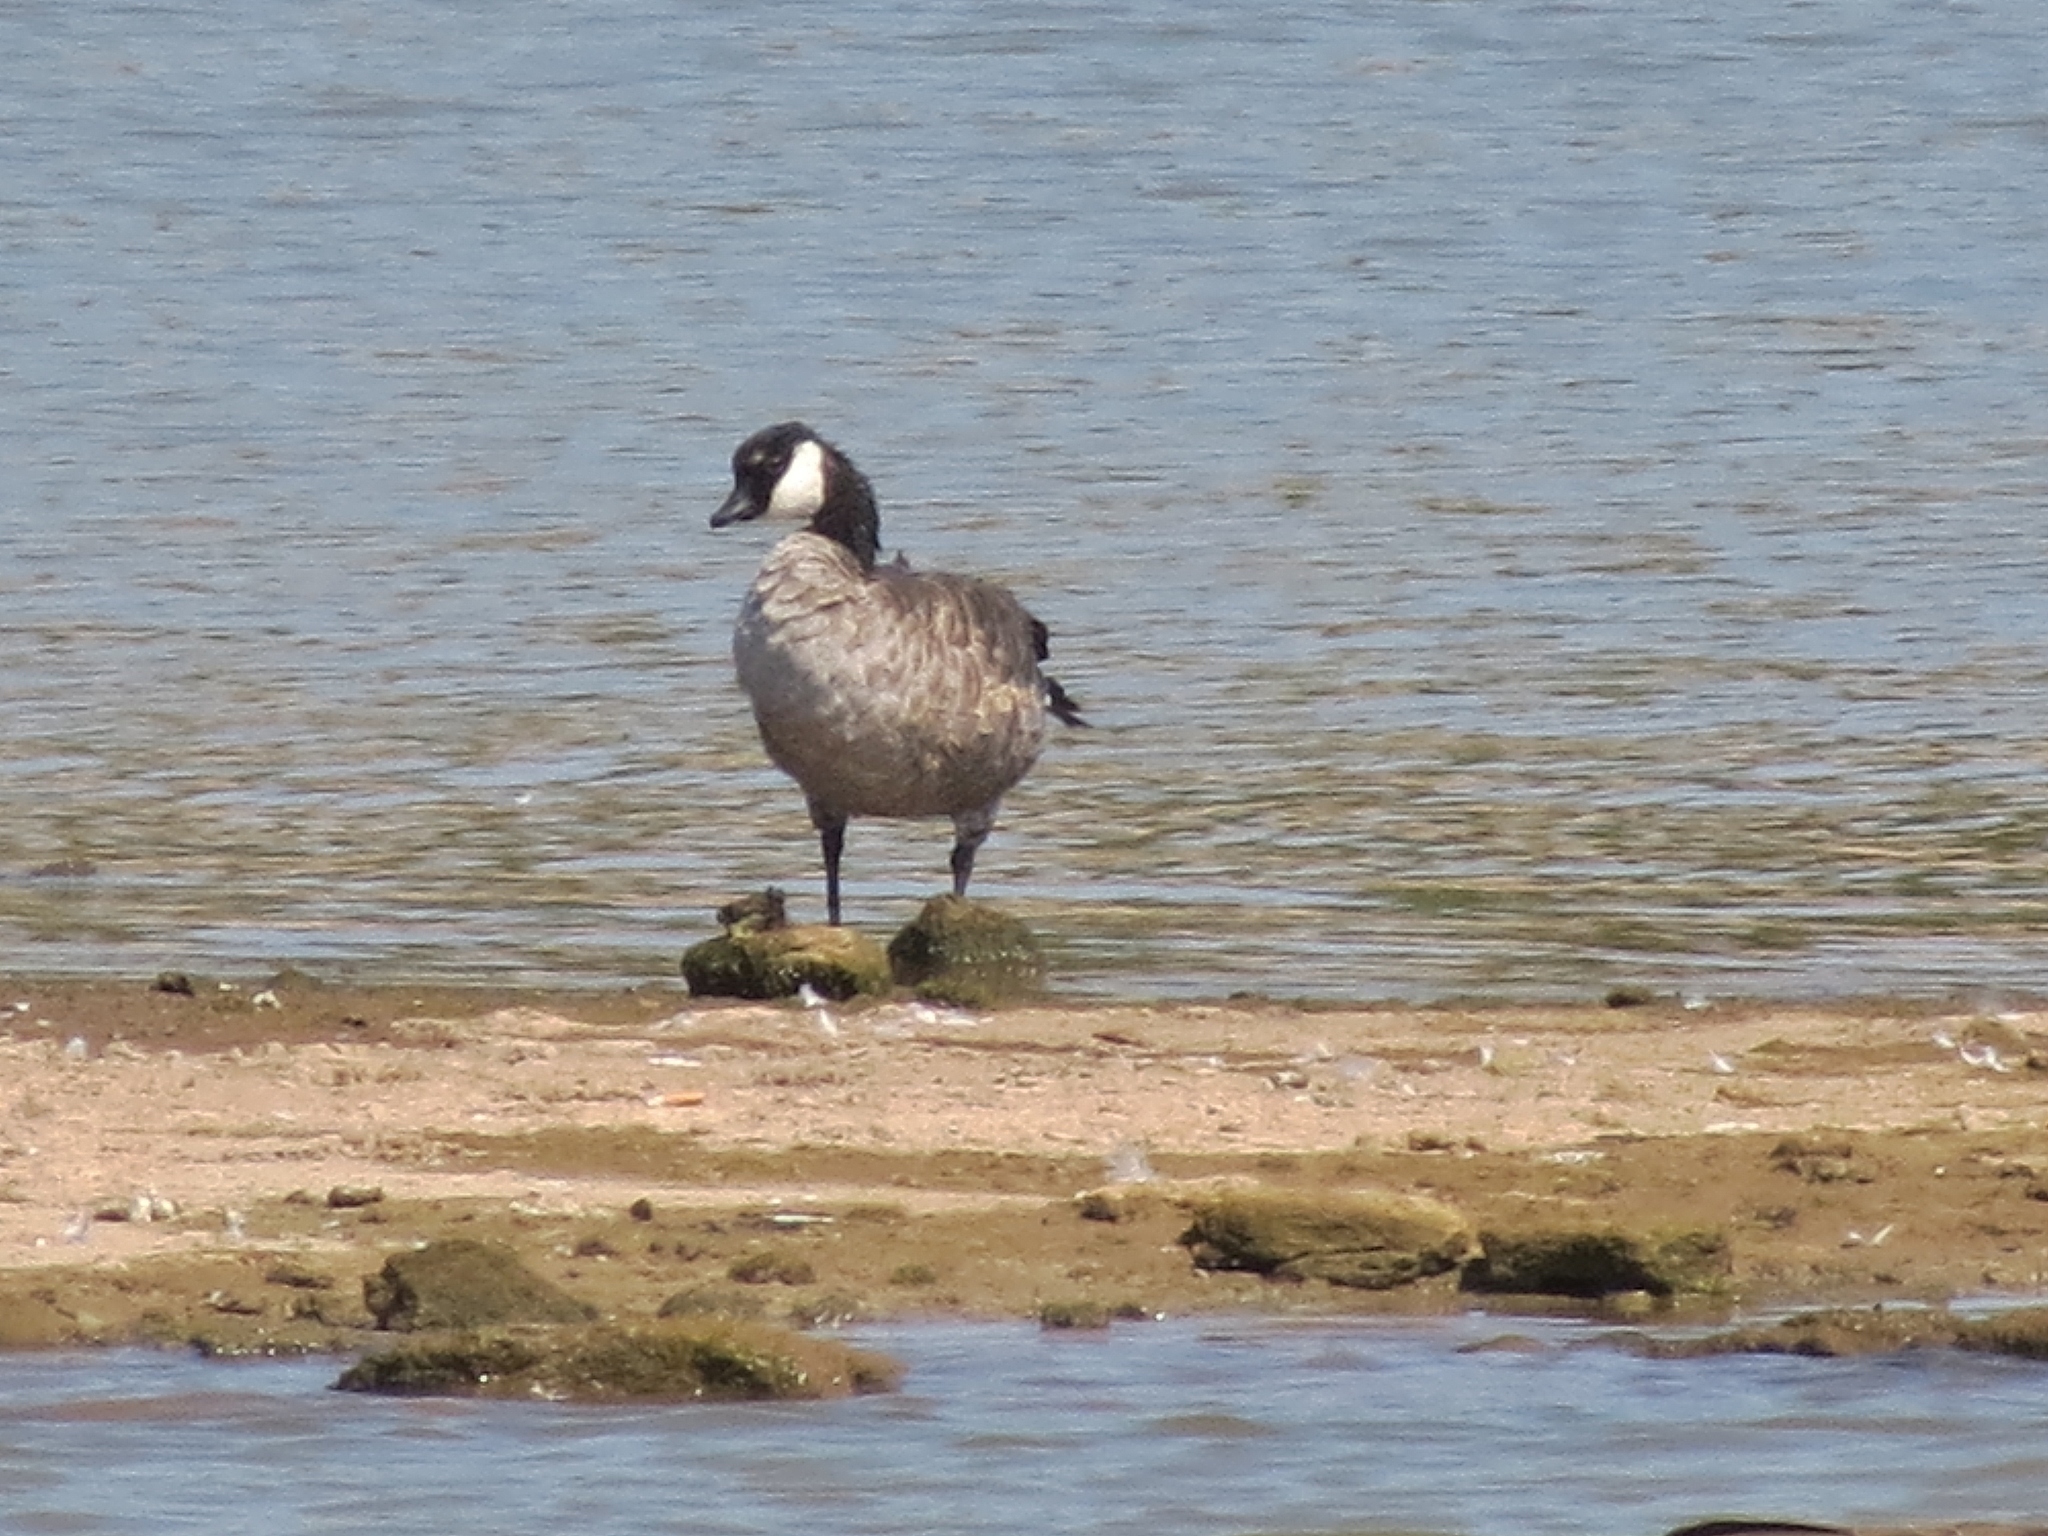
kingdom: Animalia
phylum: Chordata
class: Aves
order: Anseriformes
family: Anatidae
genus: Branta
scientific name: Branta canadensis
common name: Canada goose
